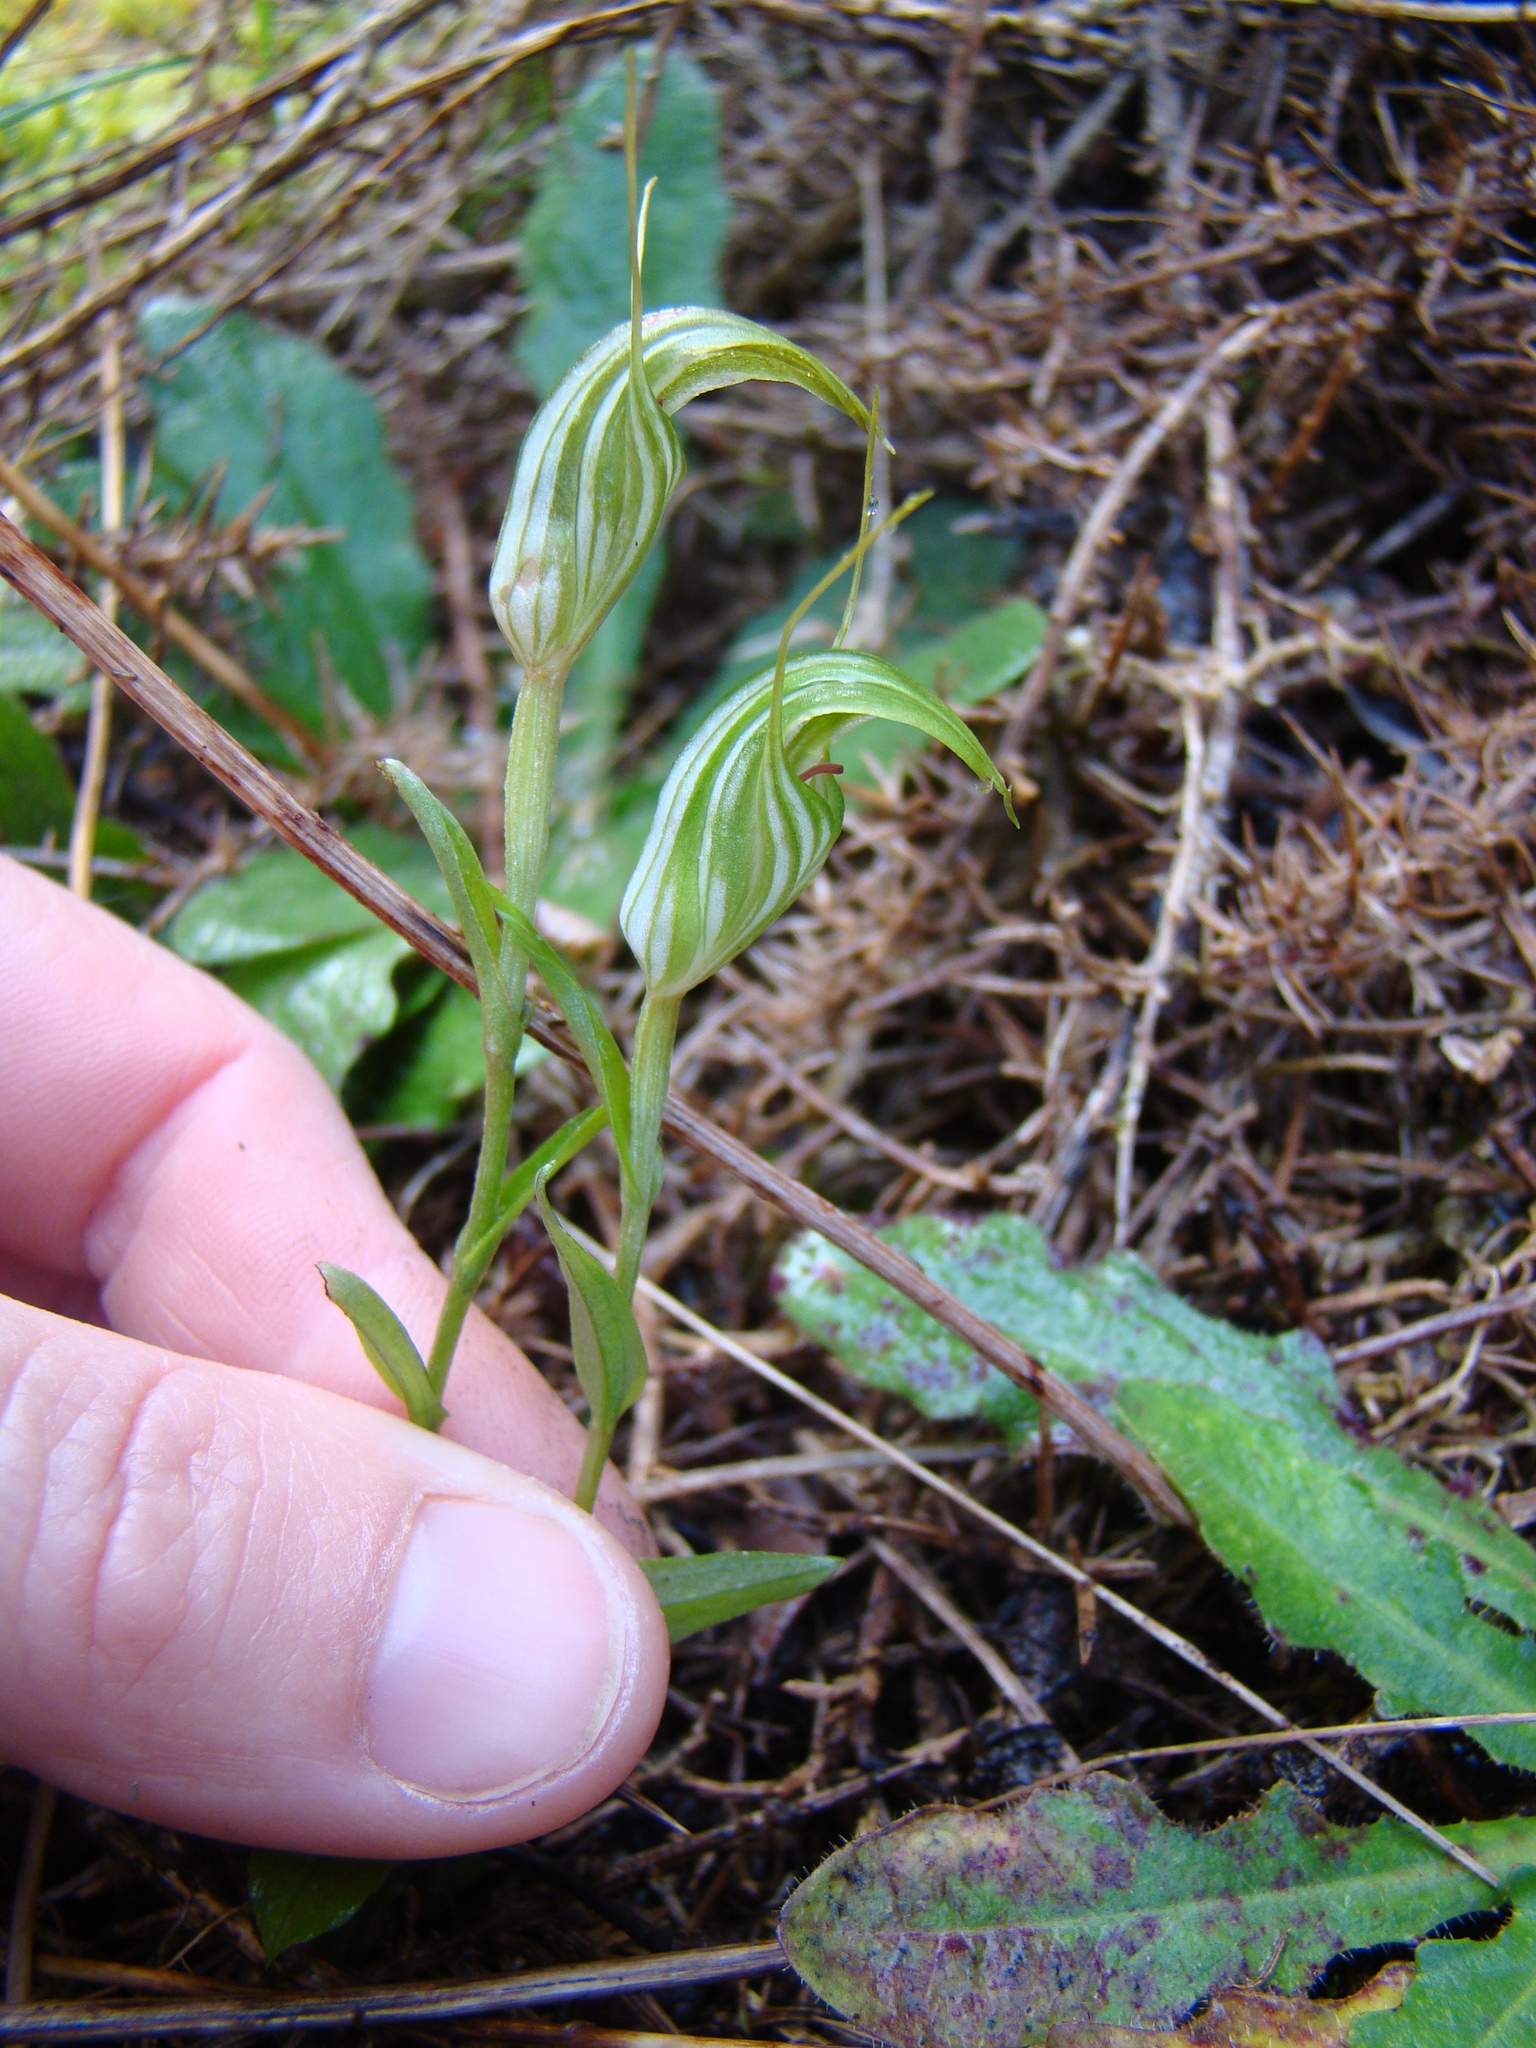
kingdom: Plantae
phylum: Tracheophyta
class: Liliopsida
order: Asparagales
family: Orchidaceae
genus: Pterostylis
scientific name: Pterostylis alobula
